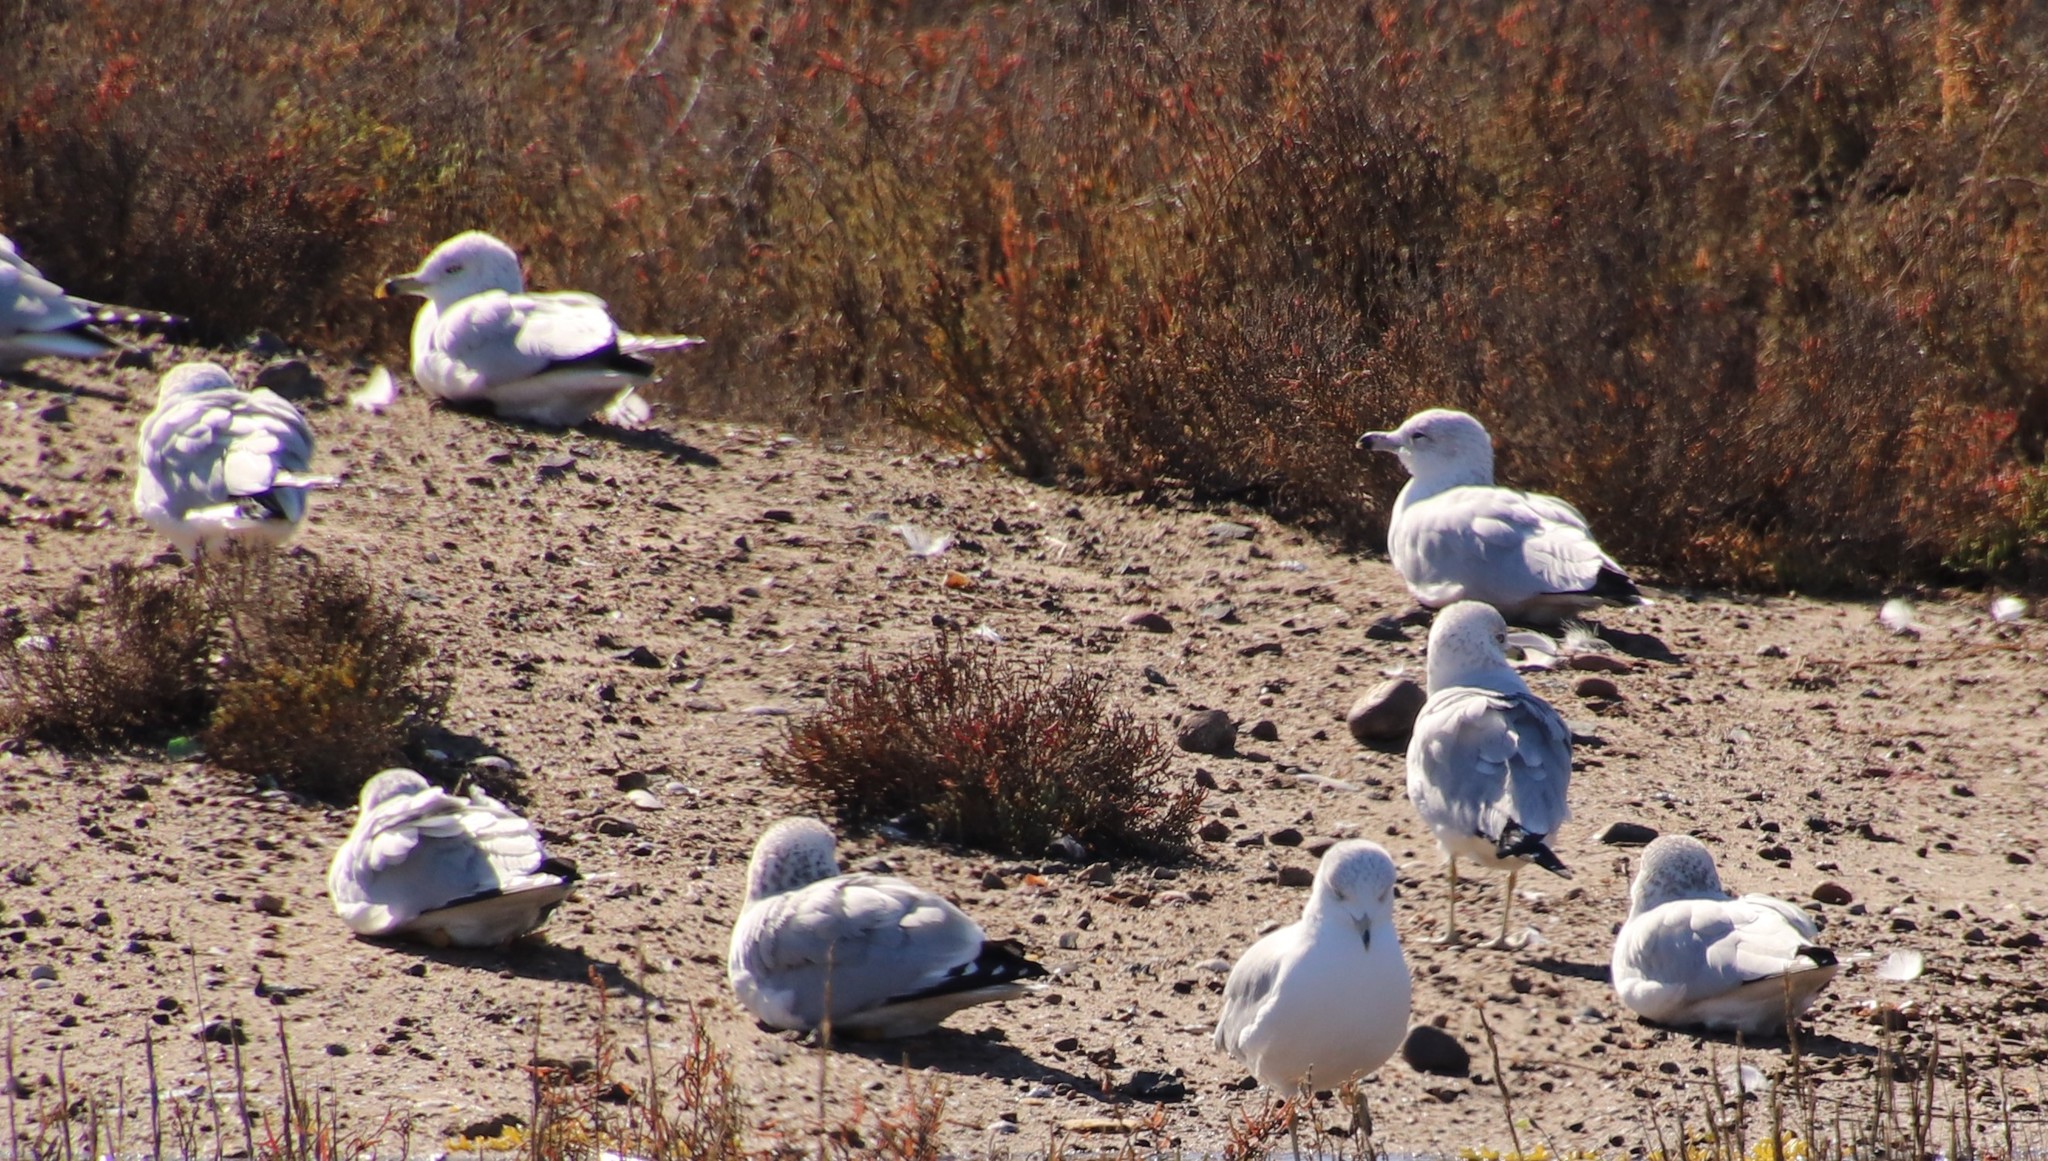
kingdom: Animalia
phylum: Chordata
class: Aves
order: Charadriiformes
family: Laridae
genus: Larus
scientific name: Larus delawarensis
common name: Ring-billed gull
